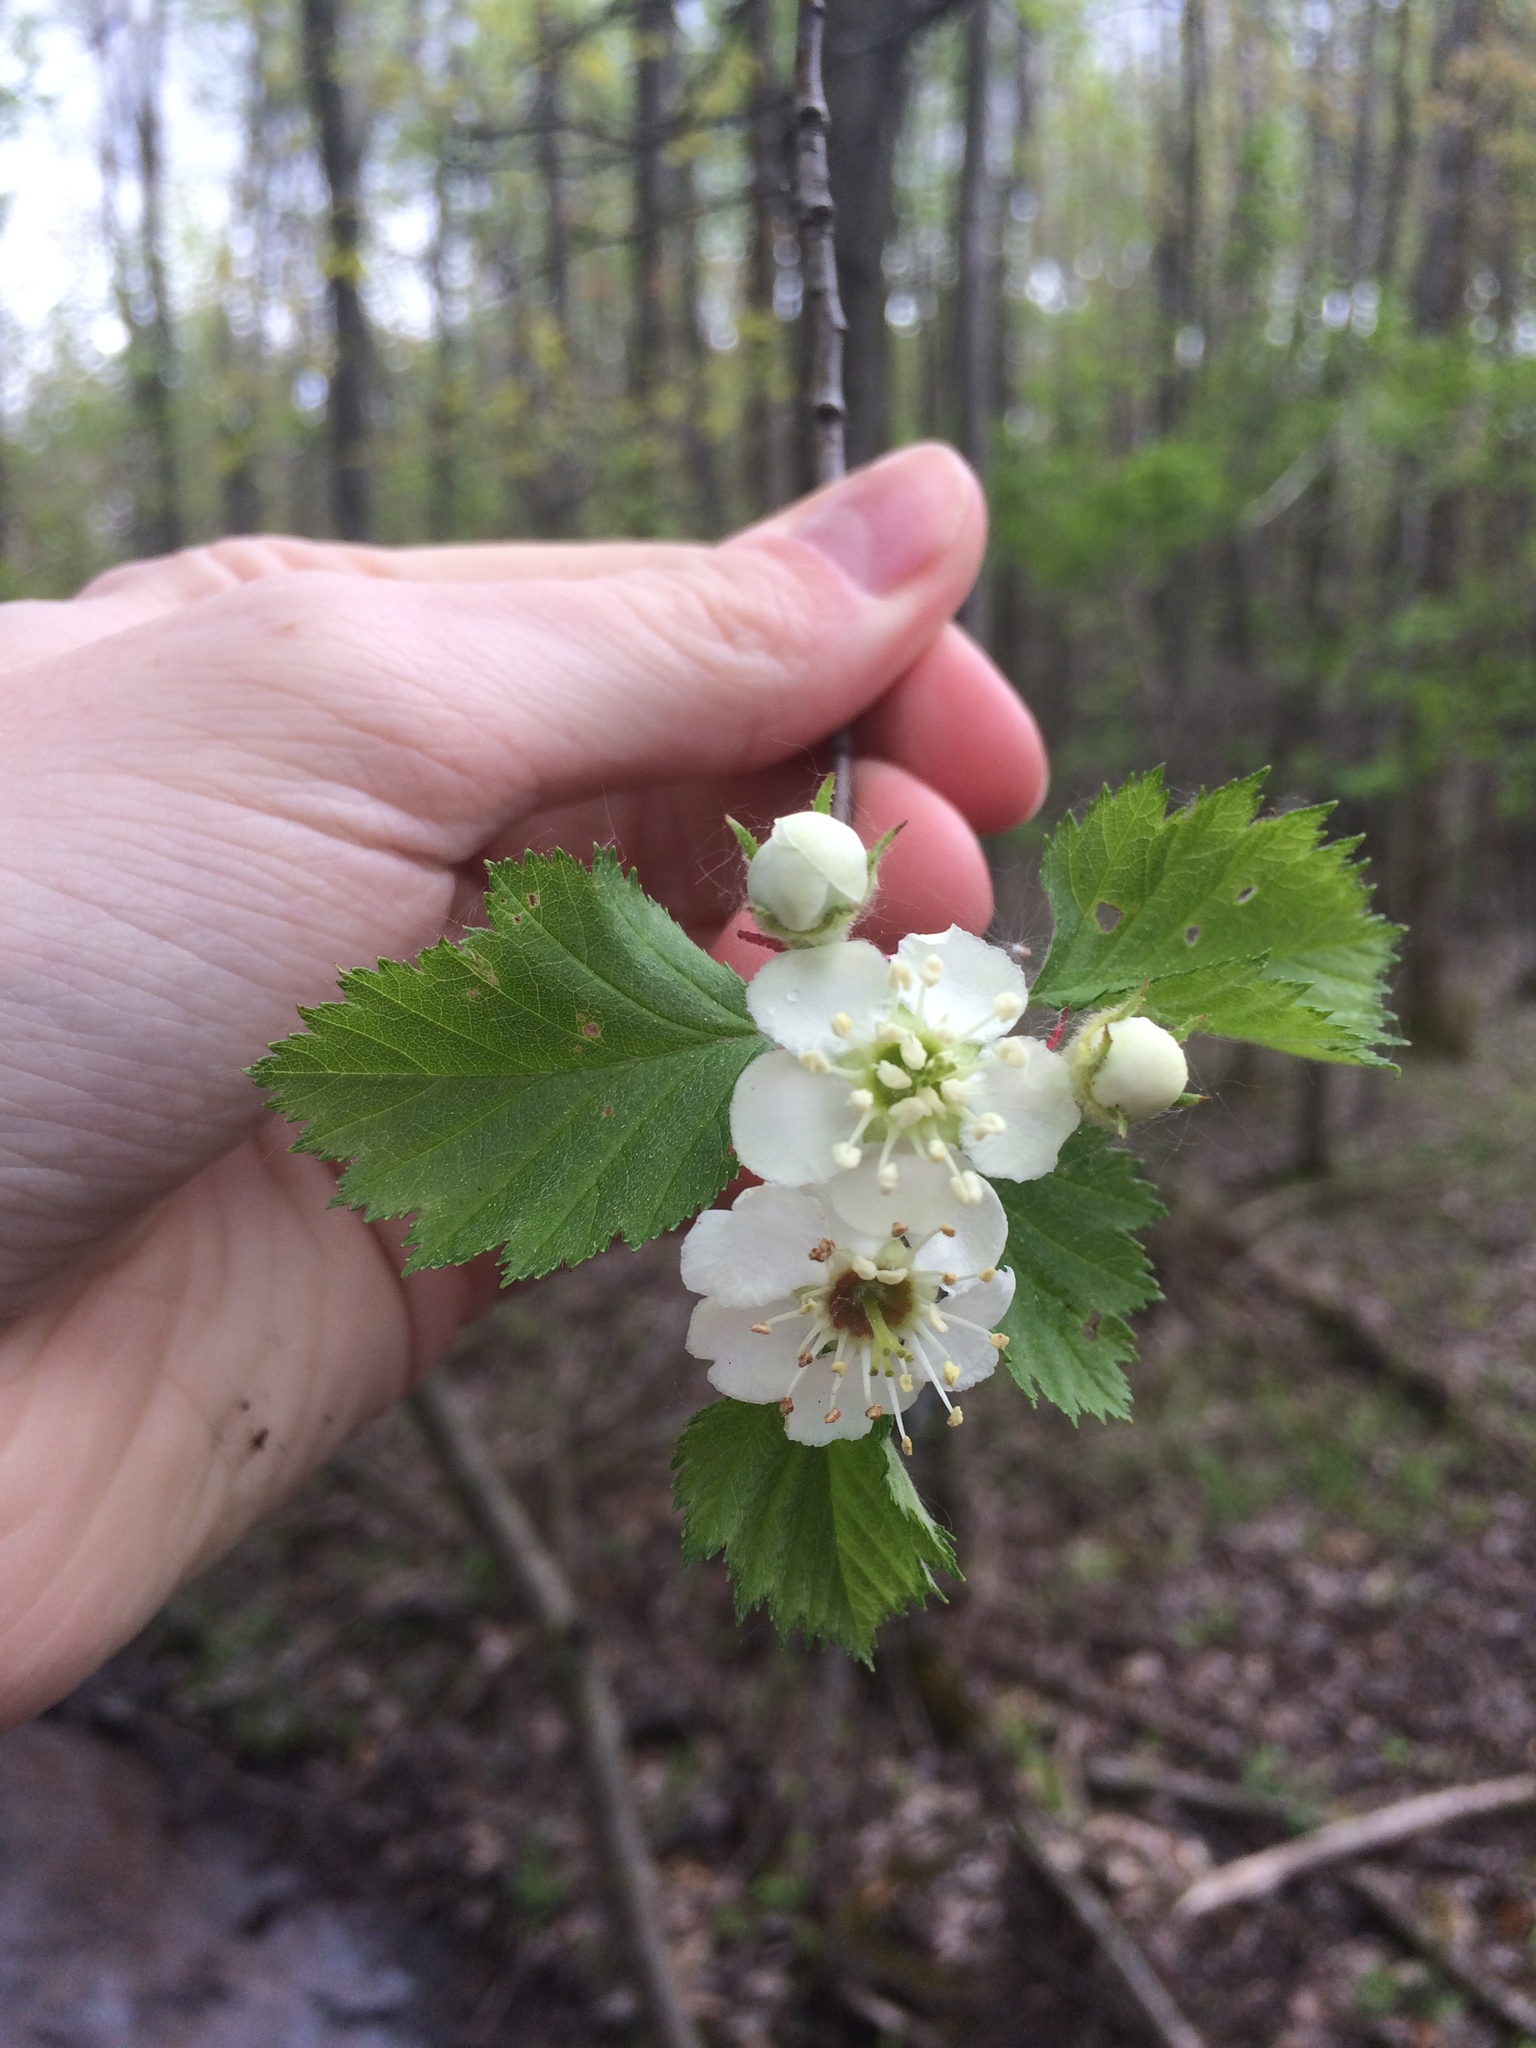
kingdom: Plantae
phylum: Tracheophyta
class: Magnoliopsida
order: Rosales
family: Rosaceae
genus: Crataegus
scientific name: Crataegus submollis
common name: Hairy cockspurthorn
